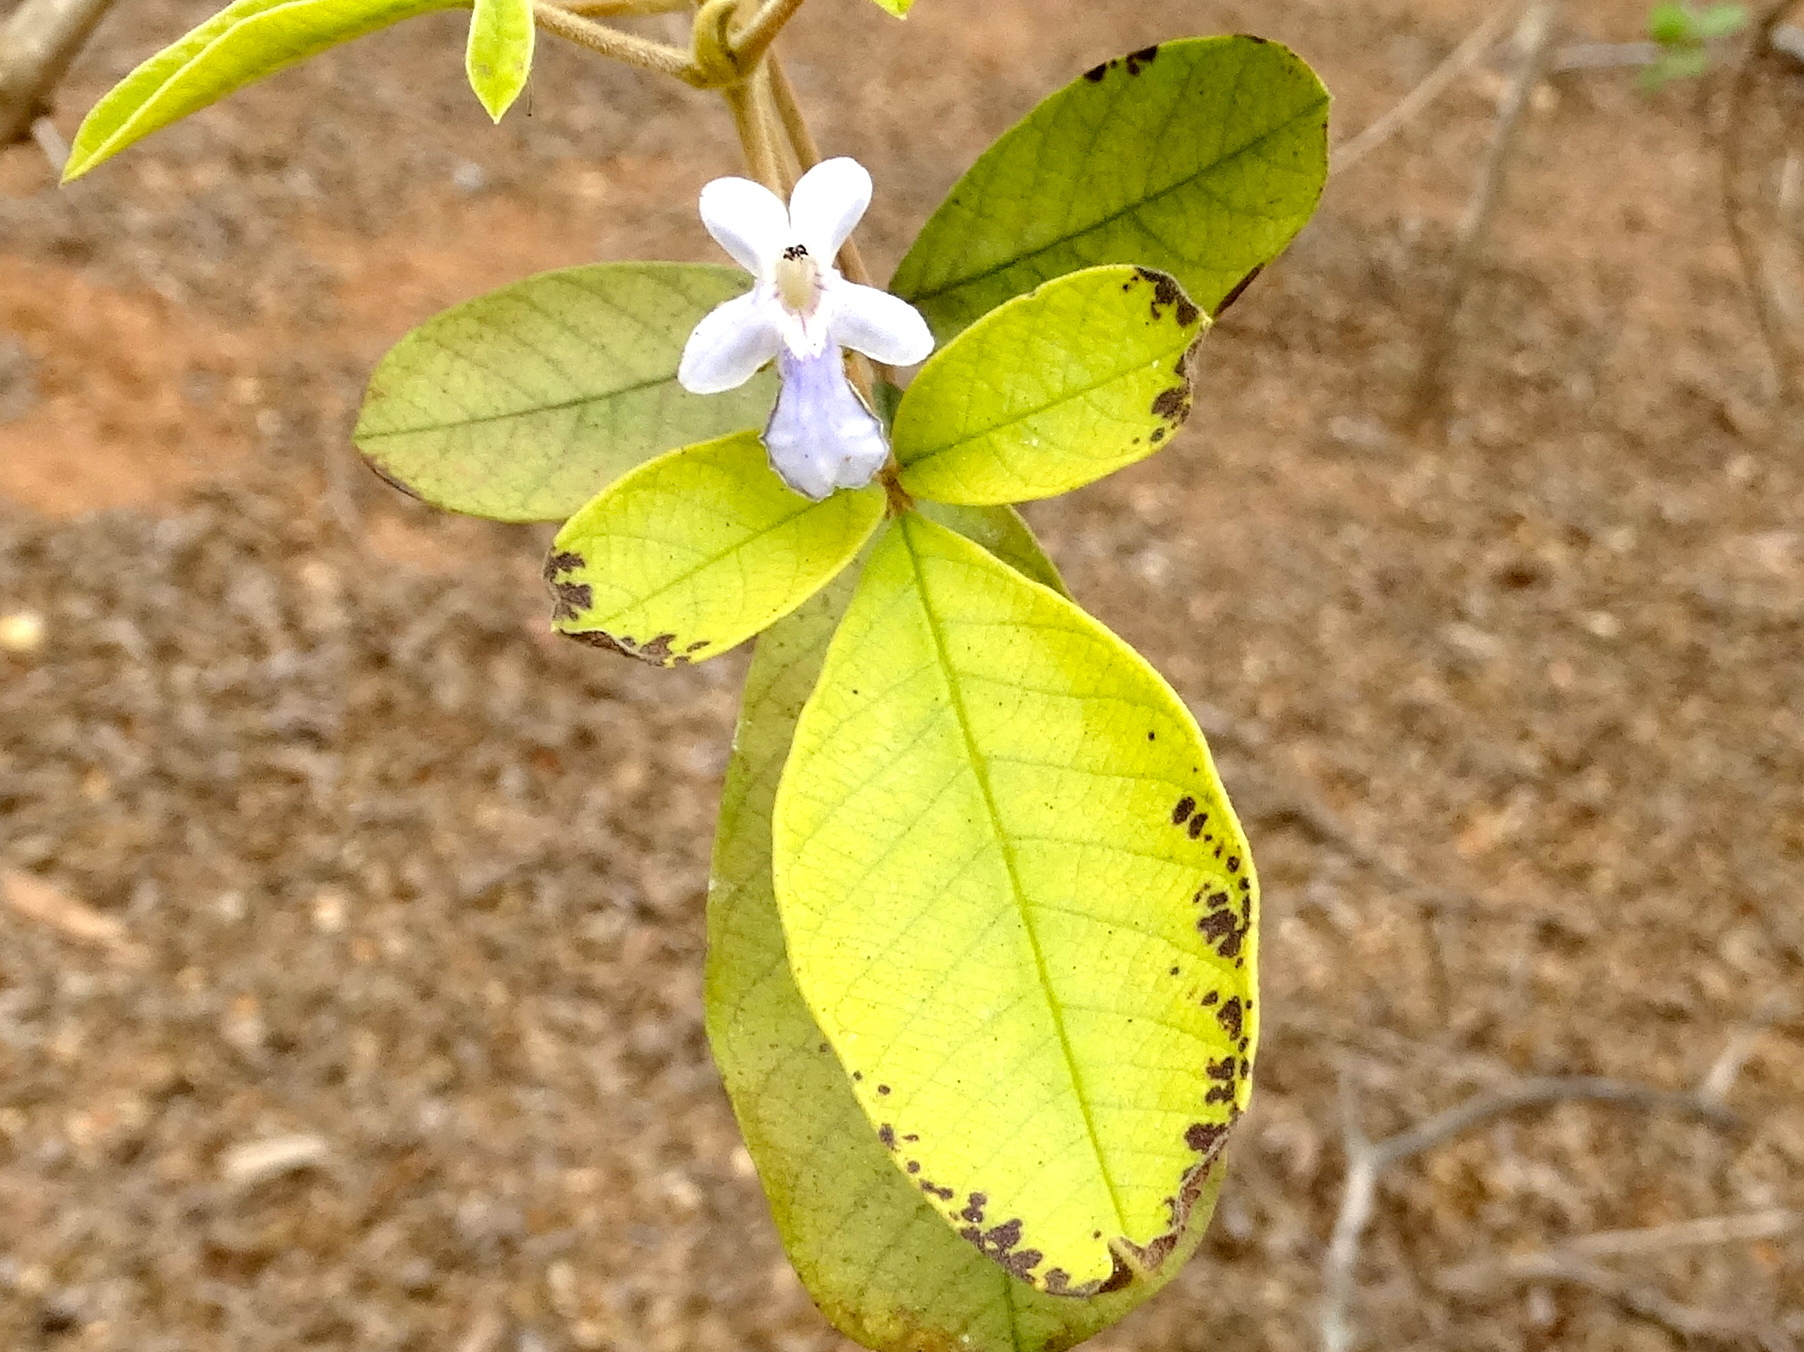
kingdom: Plantae
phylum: Tracheophyta
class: Magnoliopsida
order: Lamiales
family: Lamiaceae
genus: Vitex
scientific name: Vitex mollis
